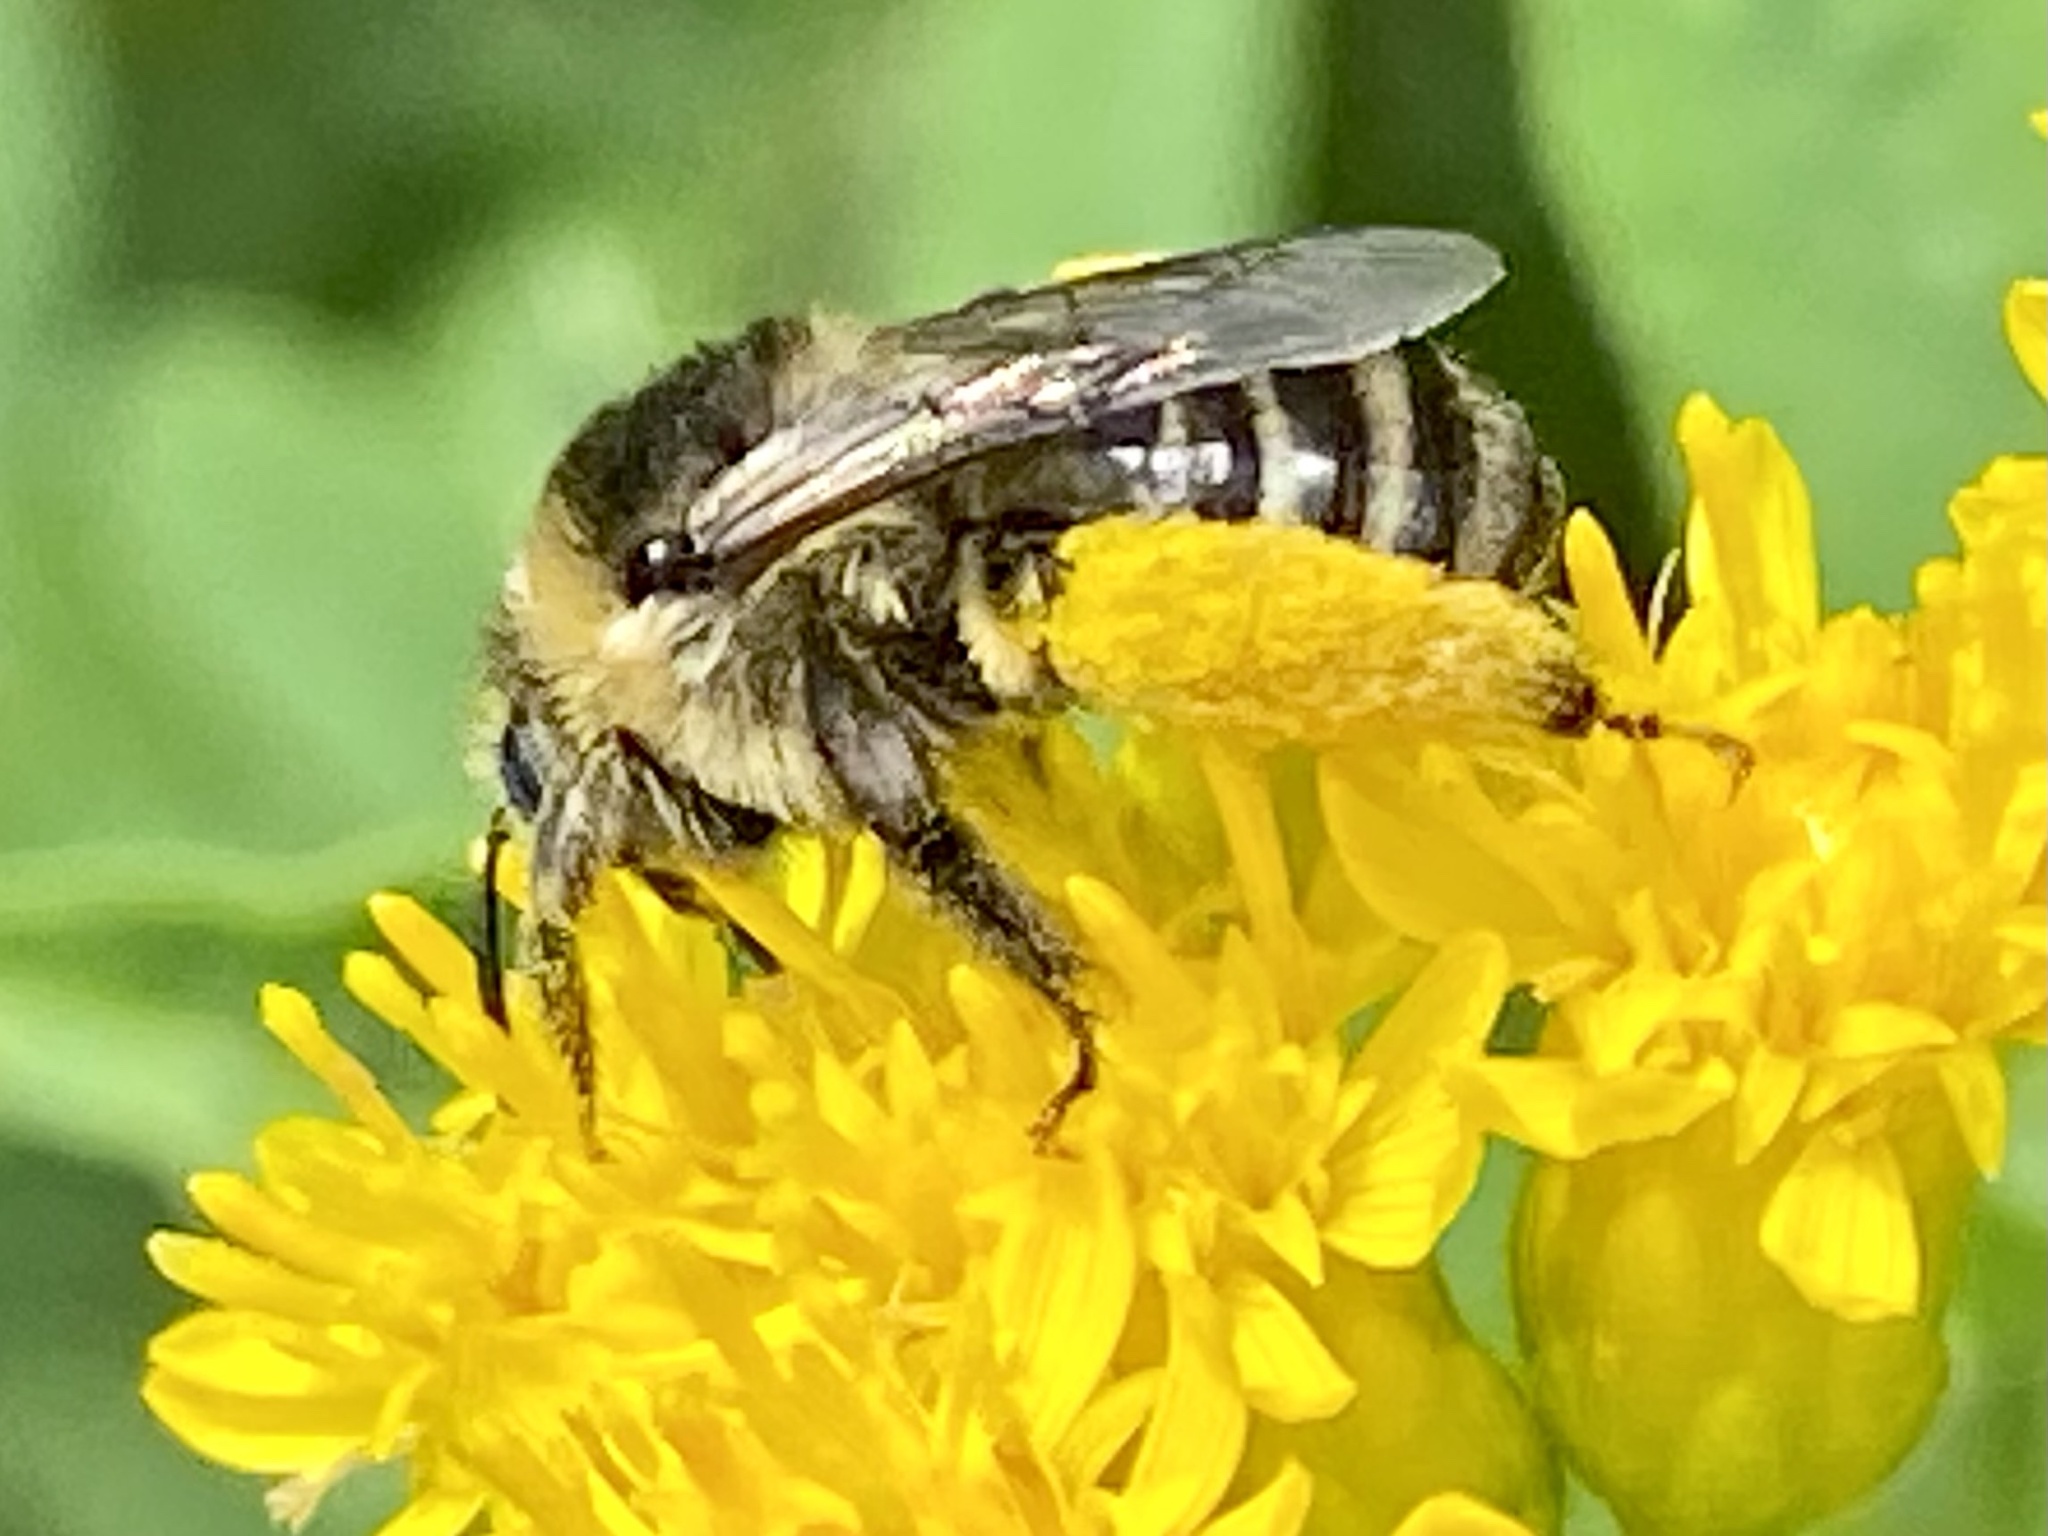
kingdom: Animalia
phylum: Arthropoda
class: Insecta
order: Hymenoptera
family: Apidae
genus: Melissodes
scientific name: Melissodes druriellus
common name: Drury's long-horned bee
